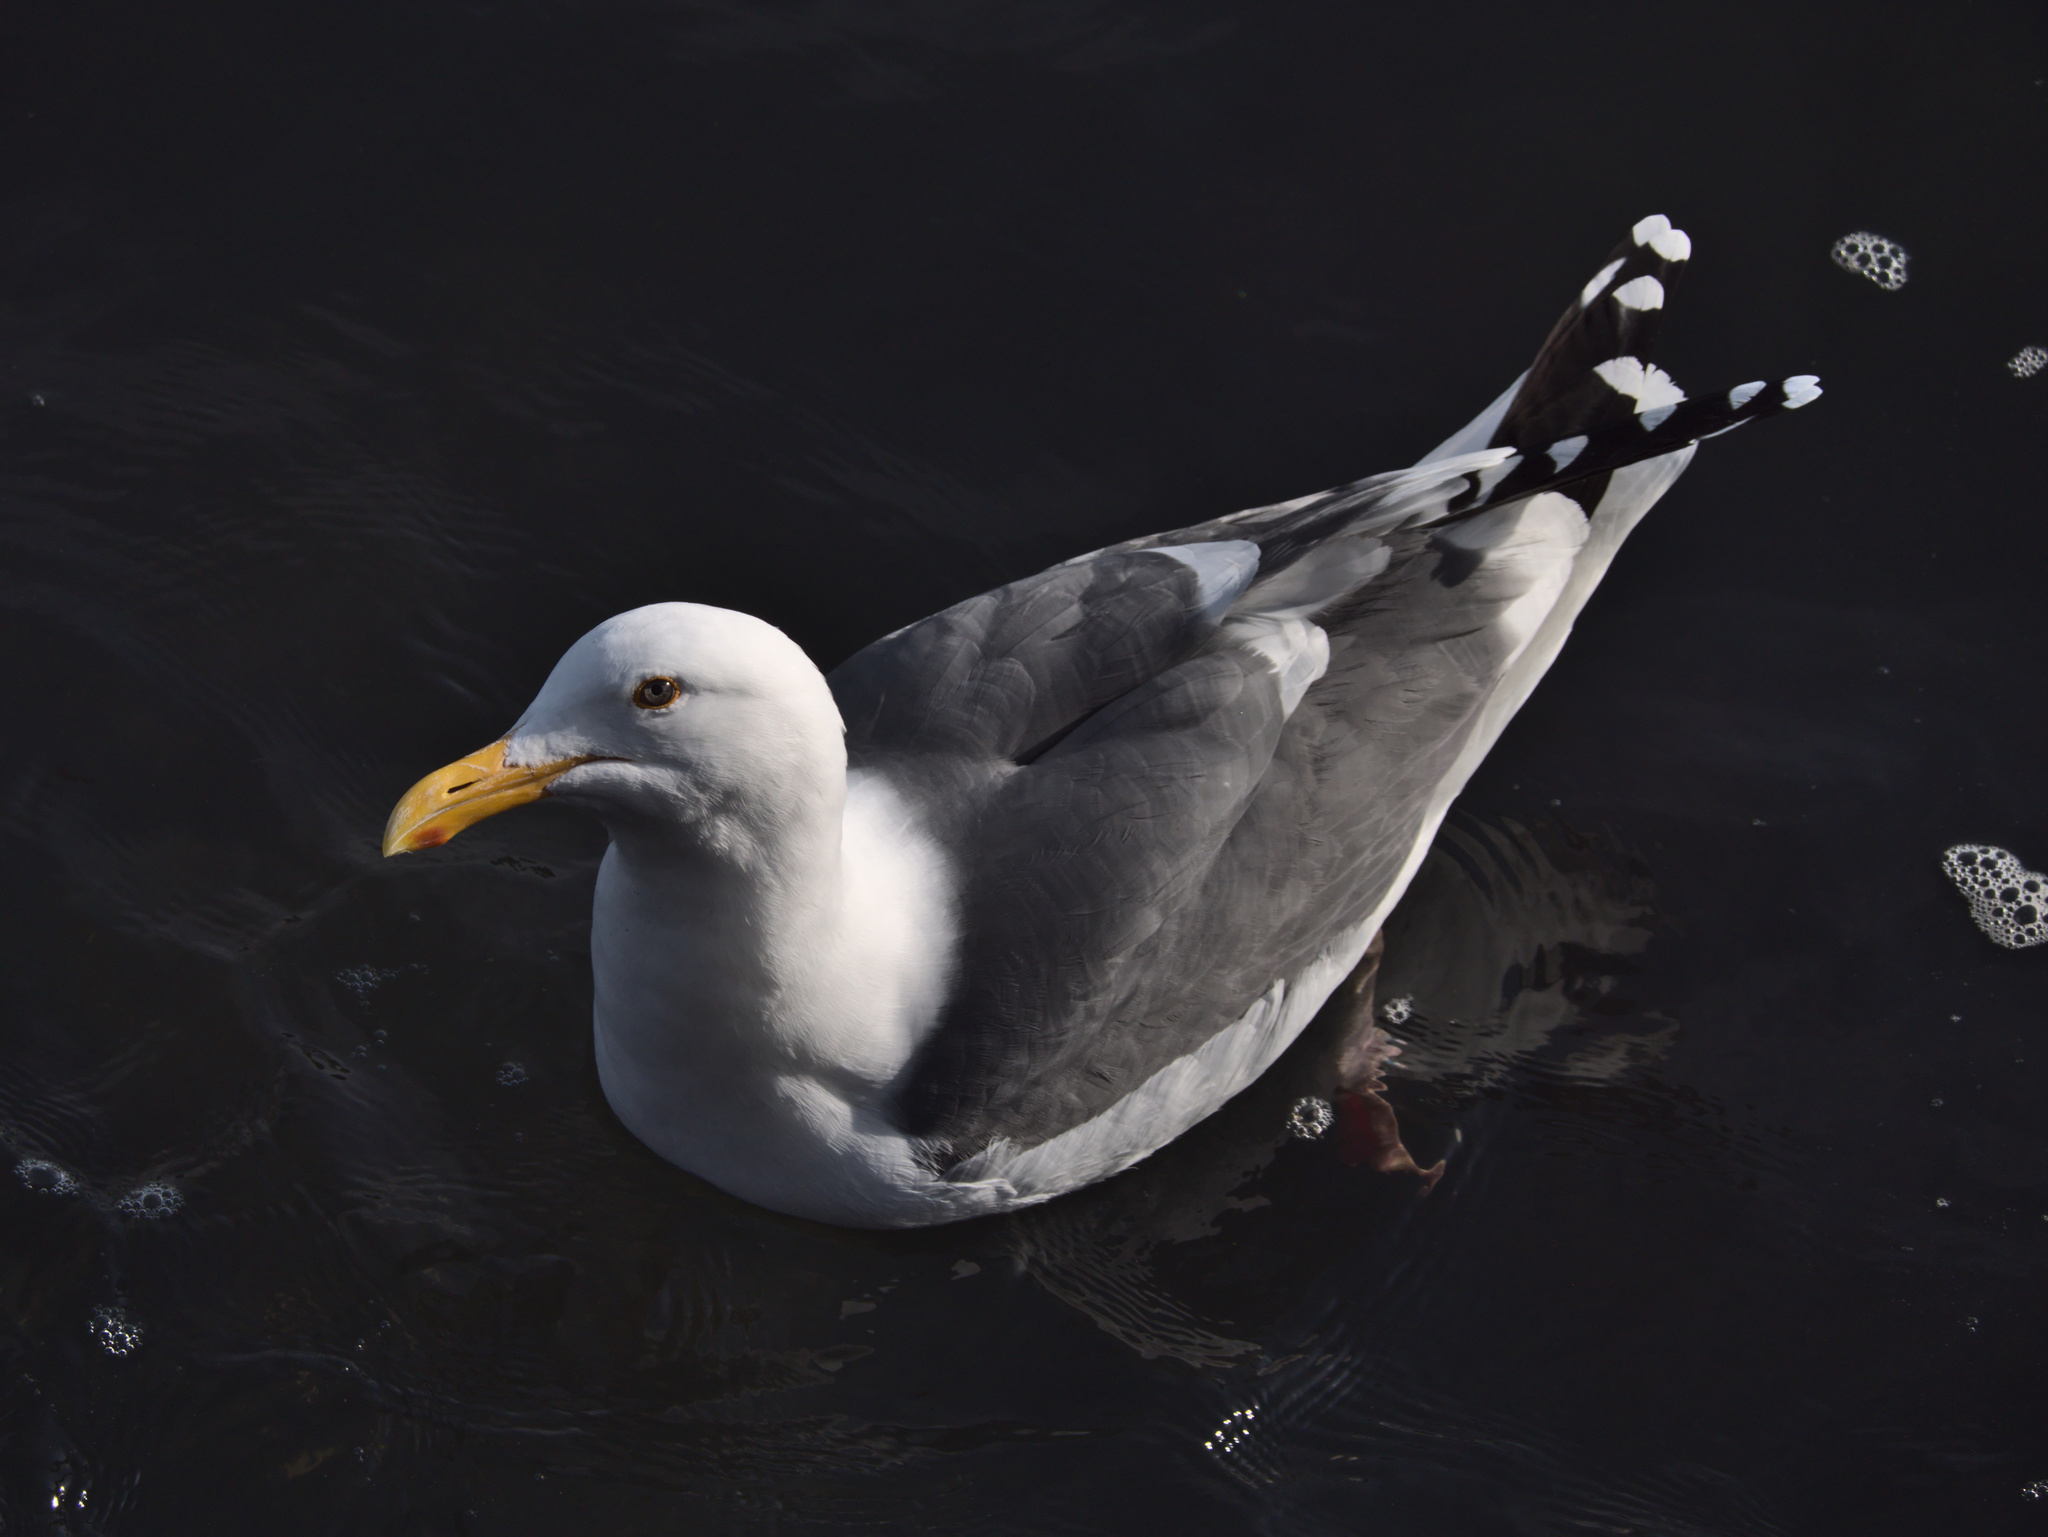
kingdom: Animalia
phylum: Chordata
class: Aves
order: Charadriiformes
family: Laridae
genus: Larus
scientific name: Larus occidentalis
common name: Western gull
